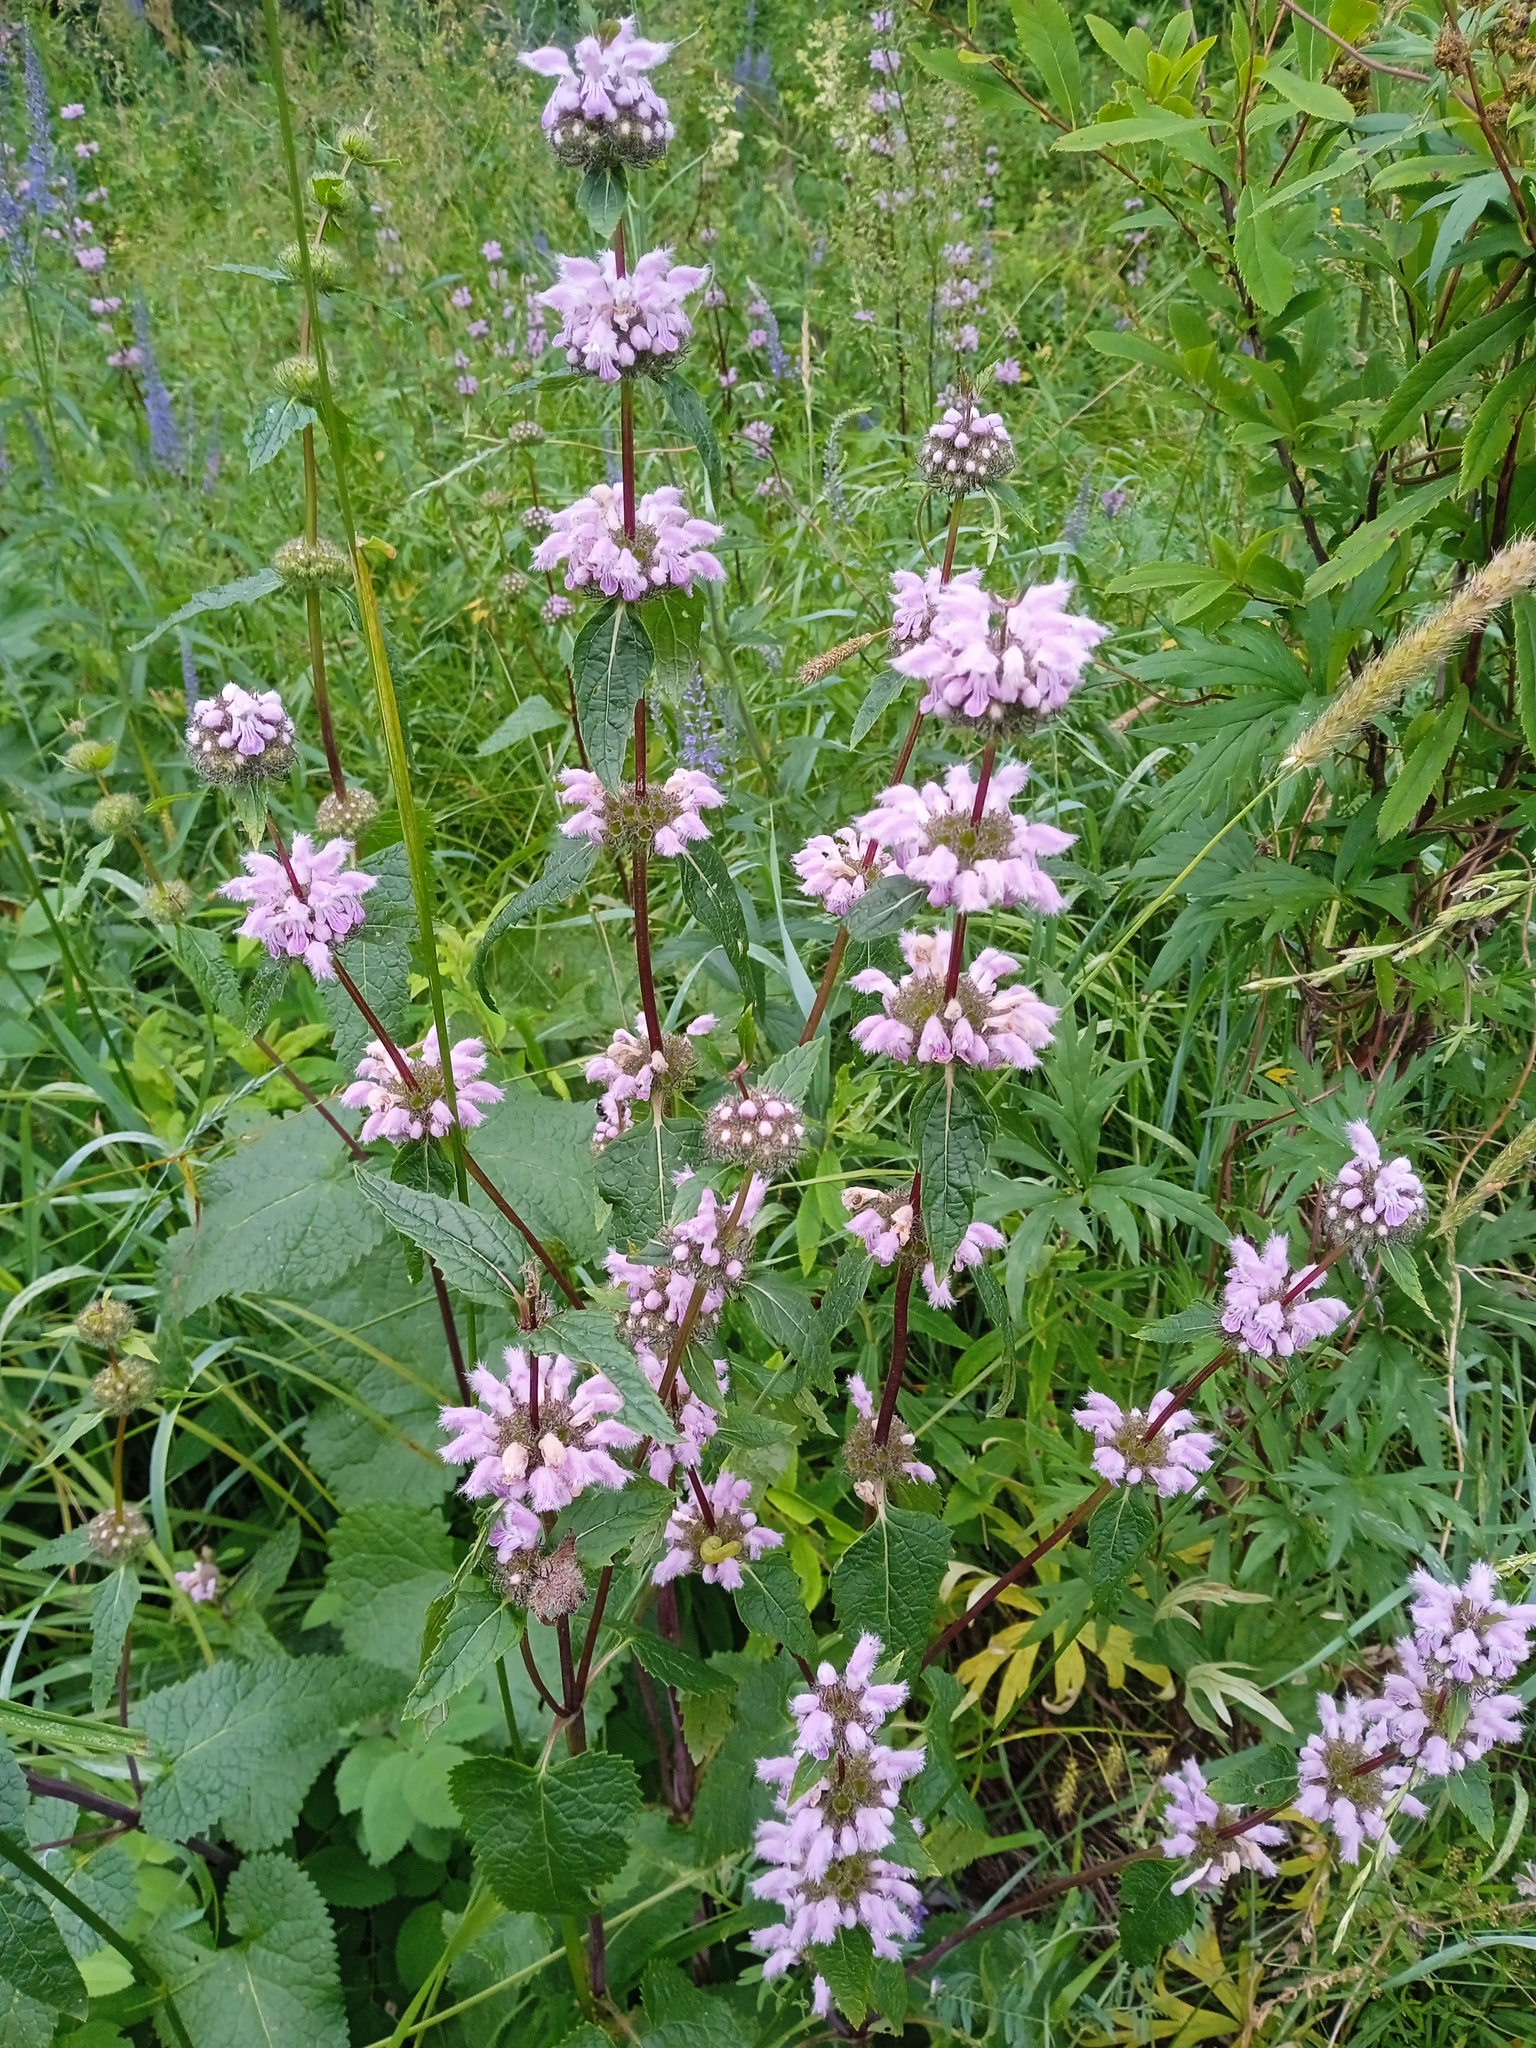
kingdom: Plantae
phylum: Tracheophyta
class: Magnoliopsida
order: Lamiales
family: Lamiaceae
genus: Phlomoides
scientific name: Phlomoides tuberosa
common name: Tuberous jerusalem sage
